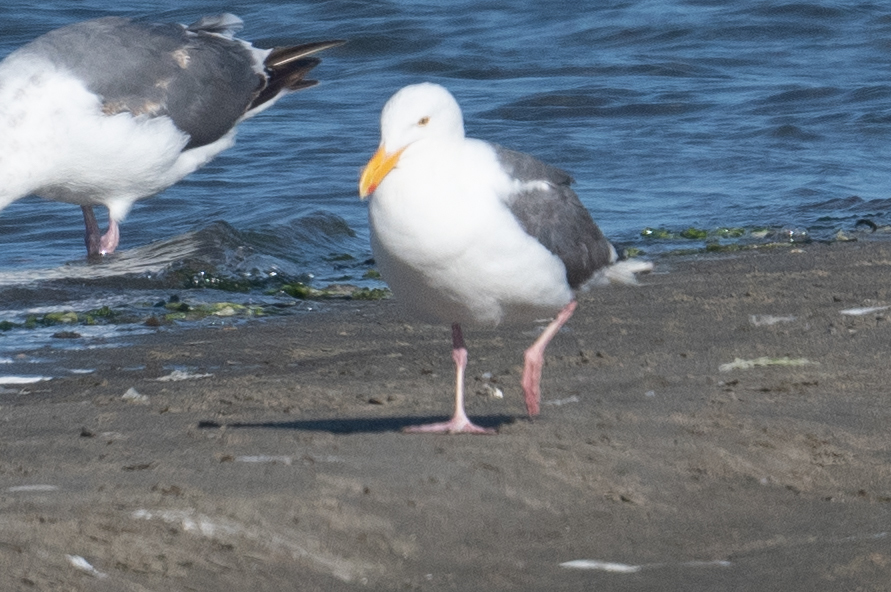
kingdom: Animalia
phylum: Chordata
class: Aves
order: Charadriiformes
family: Laridae
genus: Larus
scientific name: Larus occidentalis
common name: Western gull
